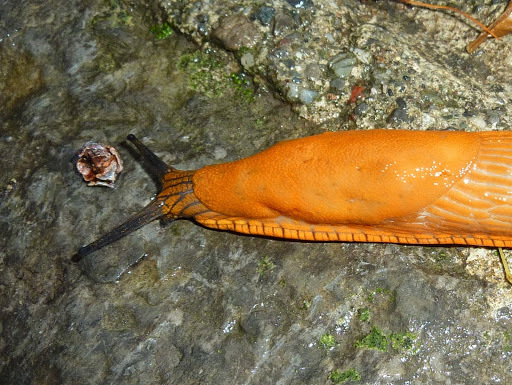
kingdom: Animalia
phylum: Mollusca
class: Gastropoda
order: Stylommatophora
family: Arionidae
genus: Arion
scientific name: Arion rufus
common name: Chocolate arion
